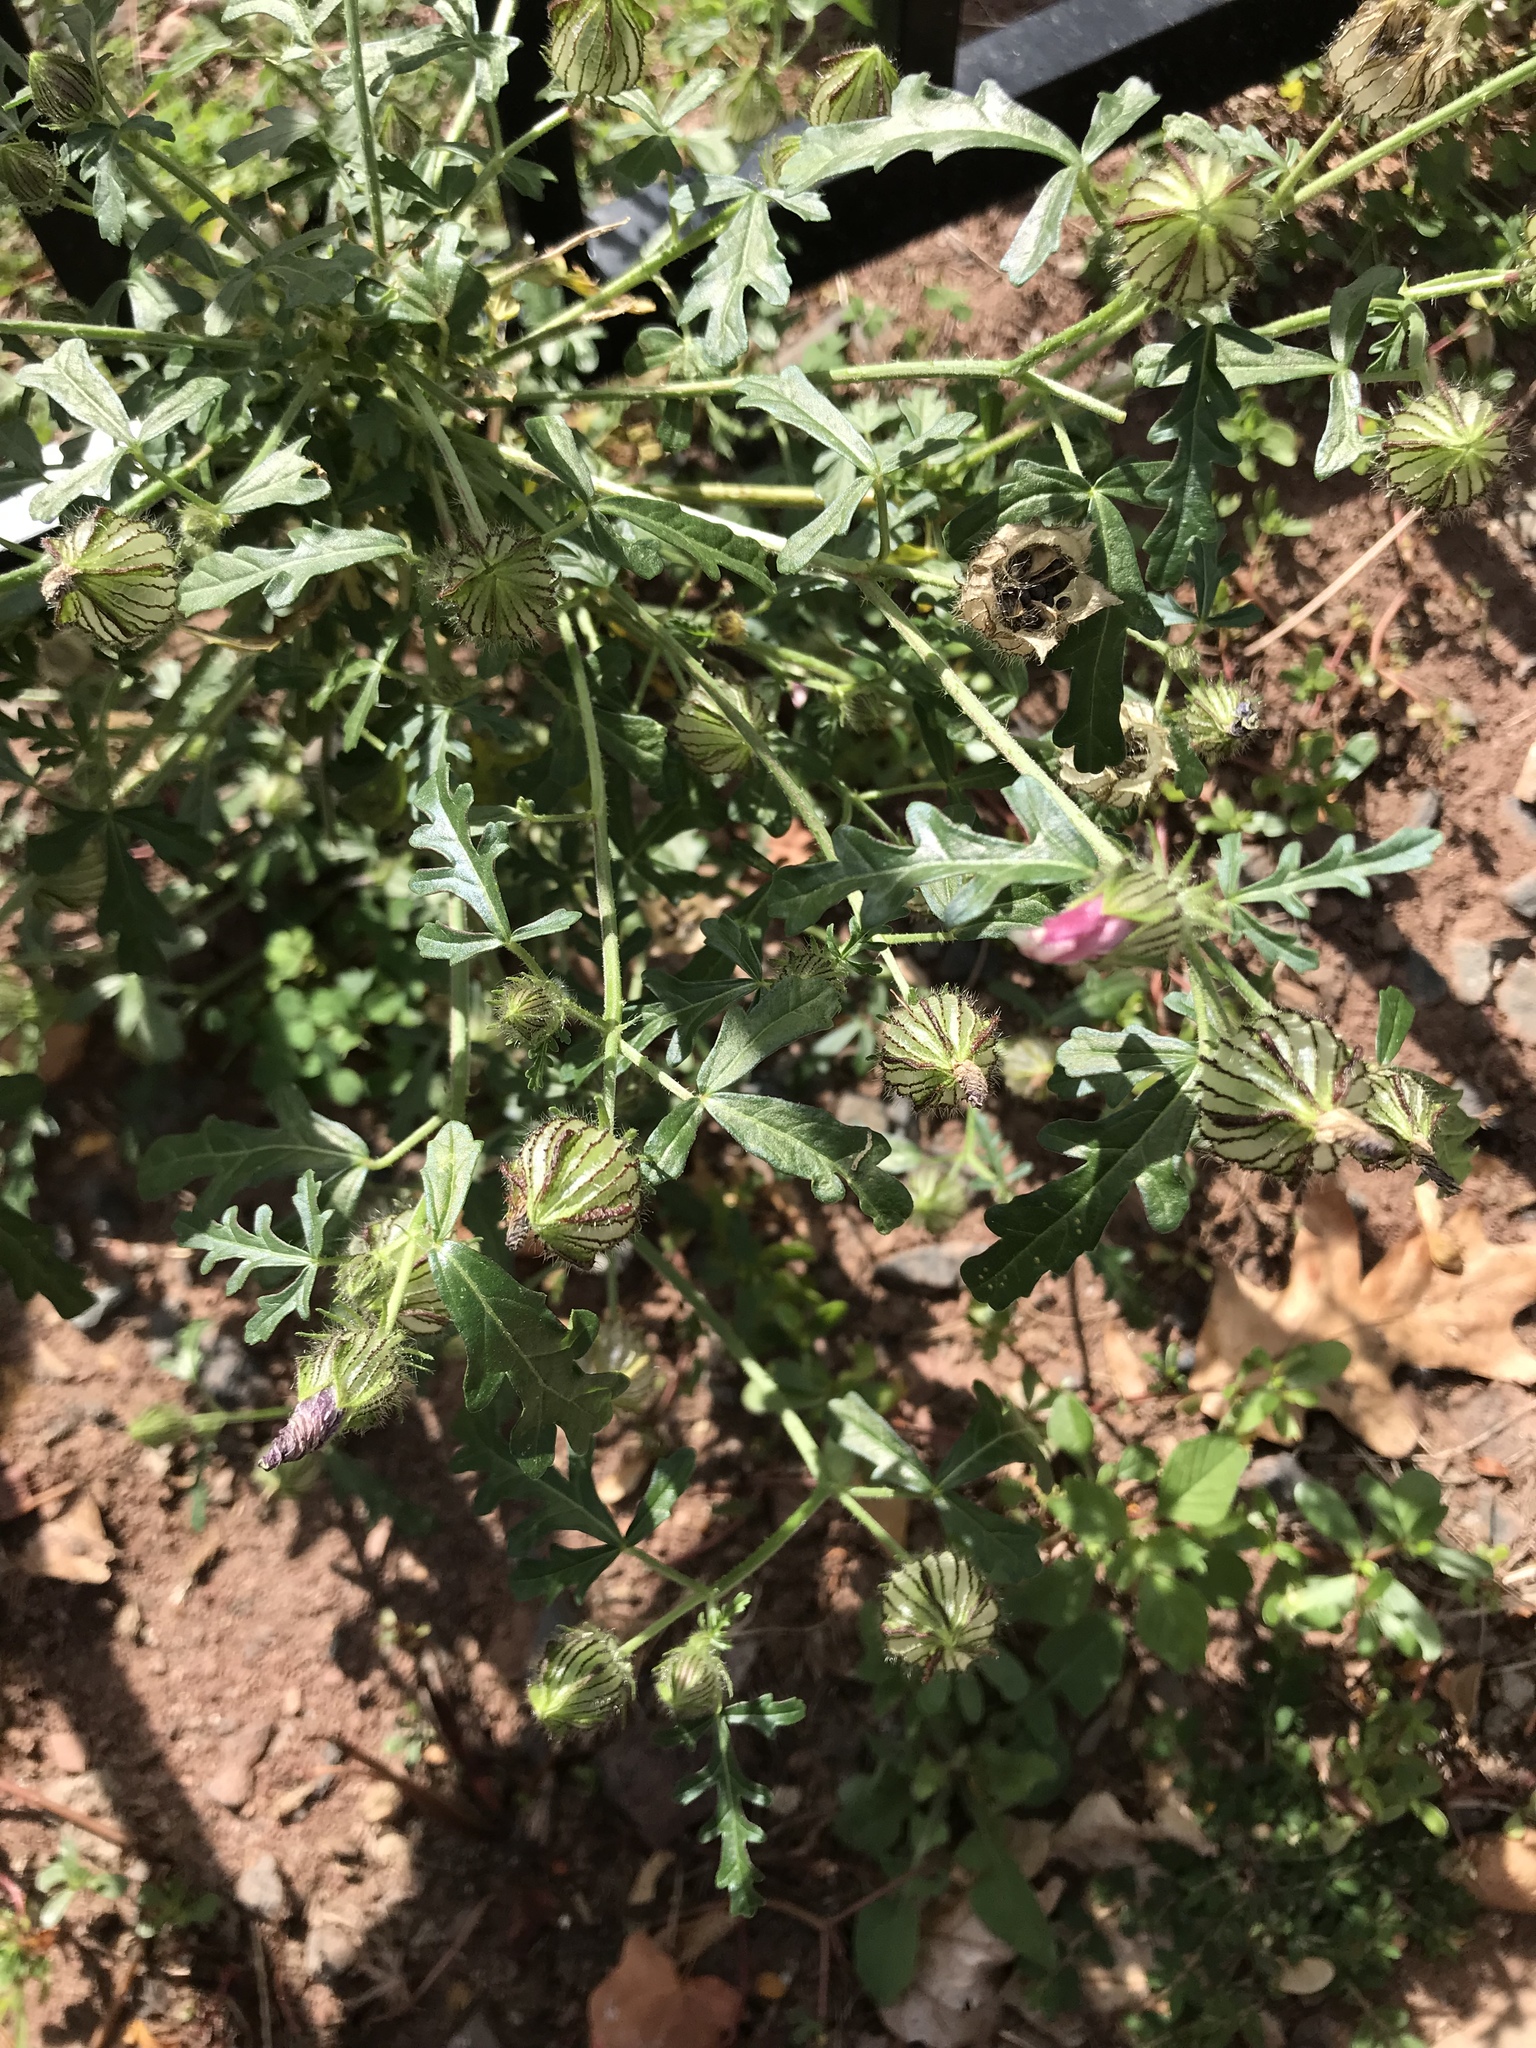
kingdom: Plantae
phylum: Tracheophyta
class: Magnoliopsida
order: Malvales
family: Malvaceae
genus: Hibiscus
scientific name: Hibiscus trionum
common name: Bladder ketmia
